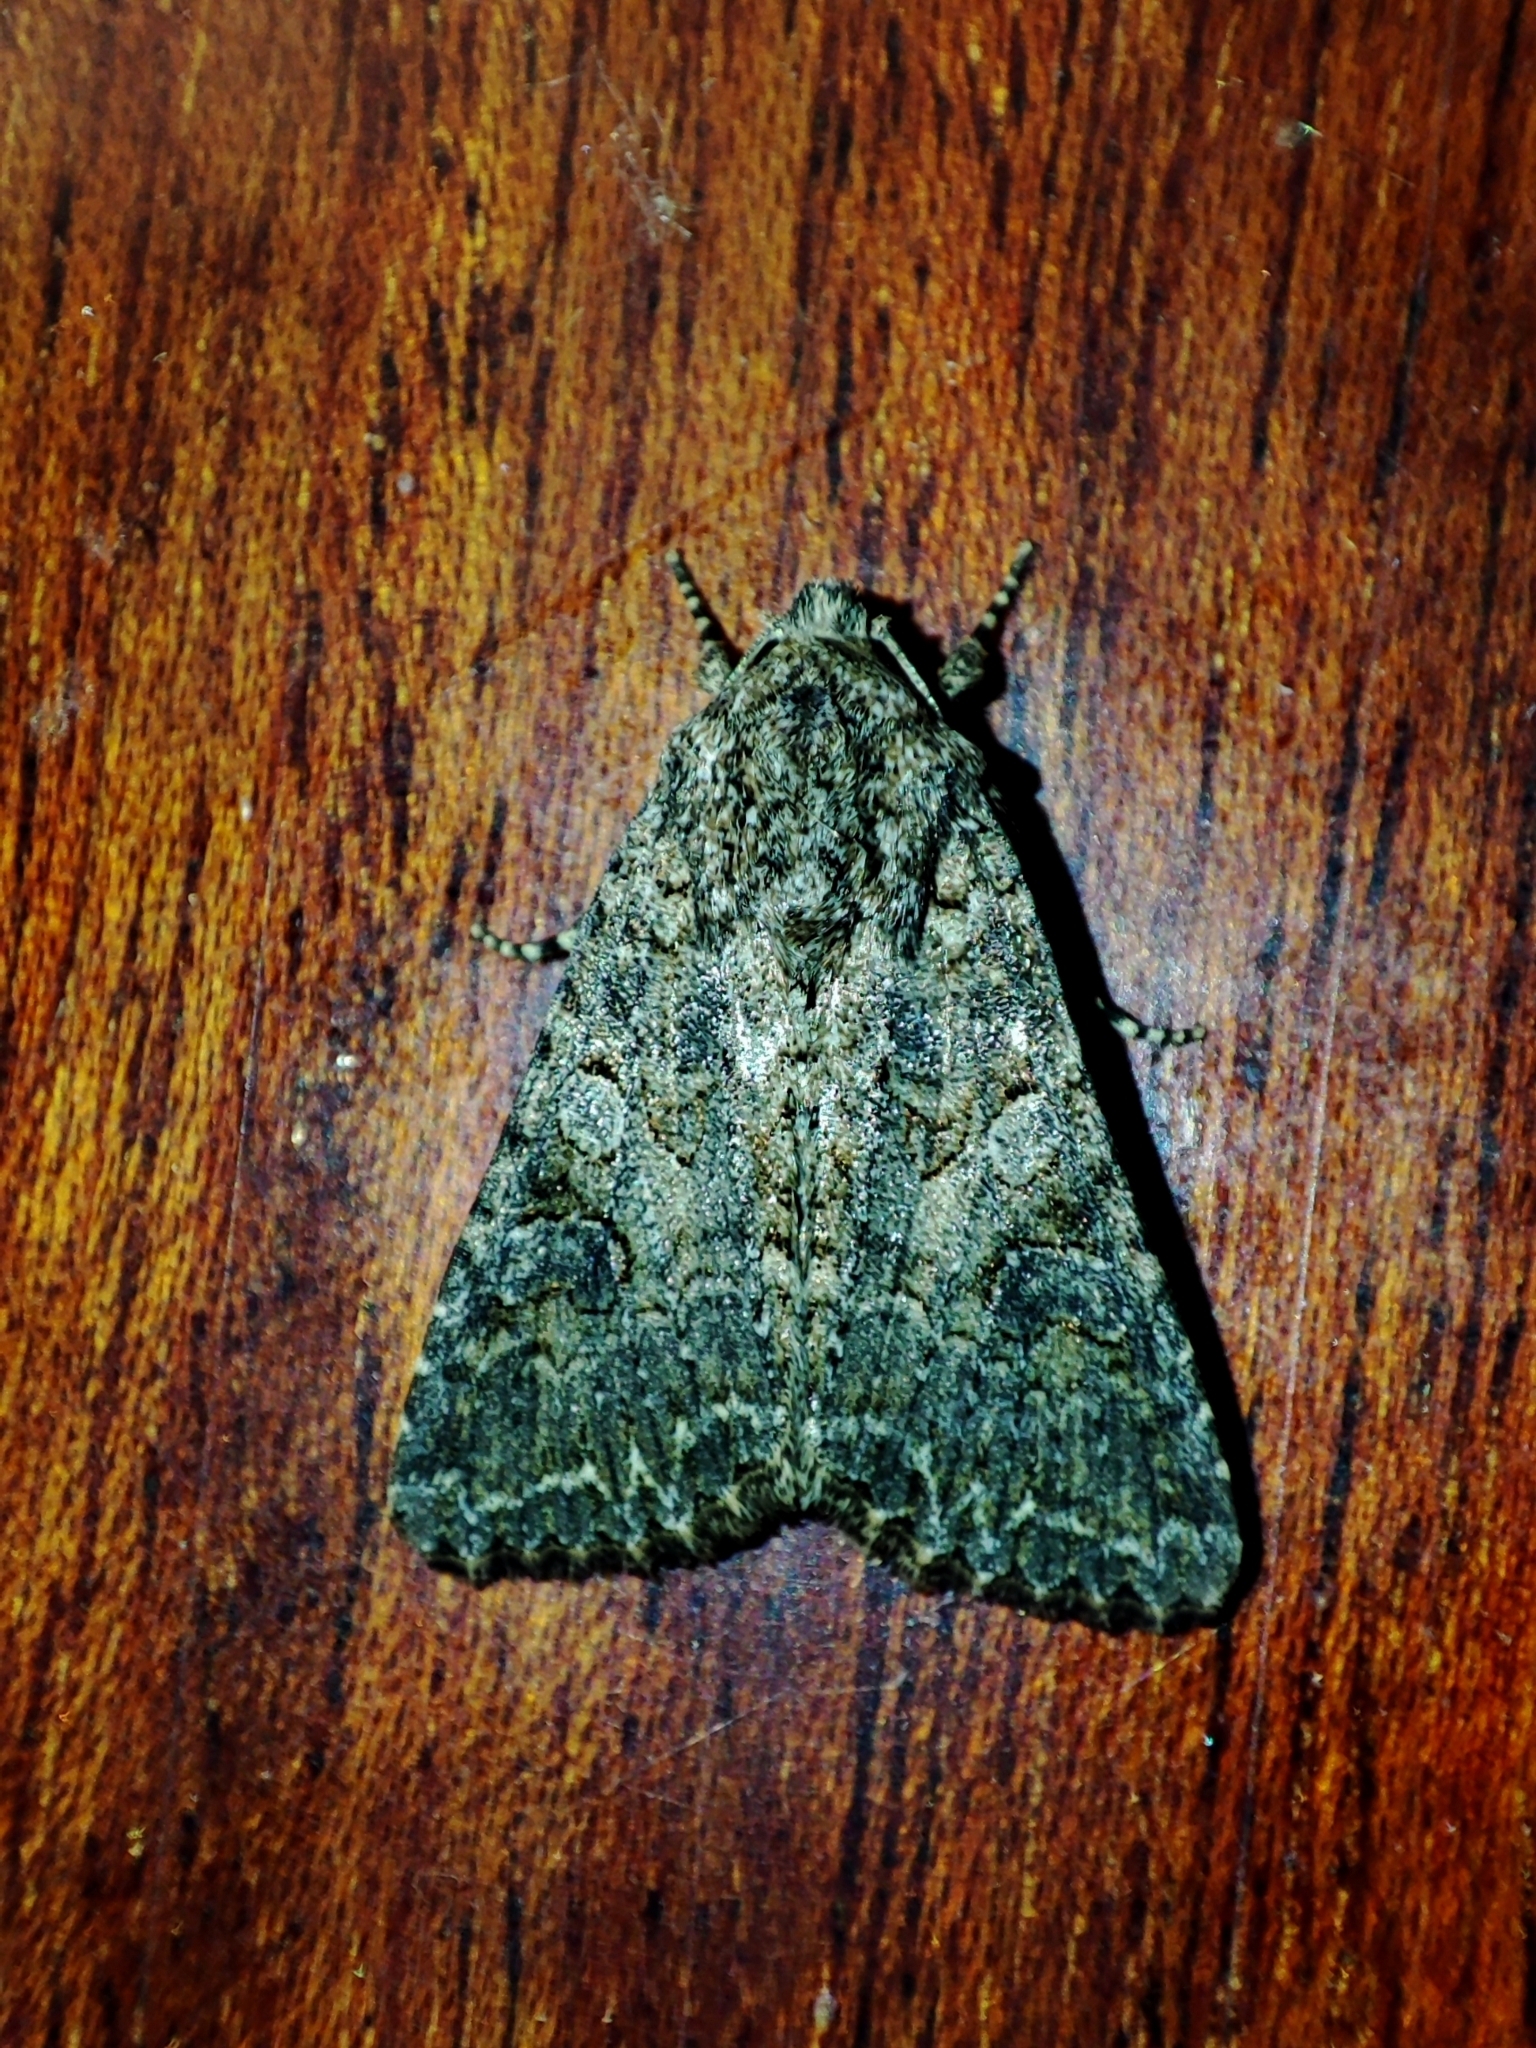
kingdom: Animalia
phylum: Arthropoda
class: Insecta
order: Lepidoptera
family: Noctuidae
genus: Anarta
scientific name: Anarta trifolii
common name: Clover cutworm moth
